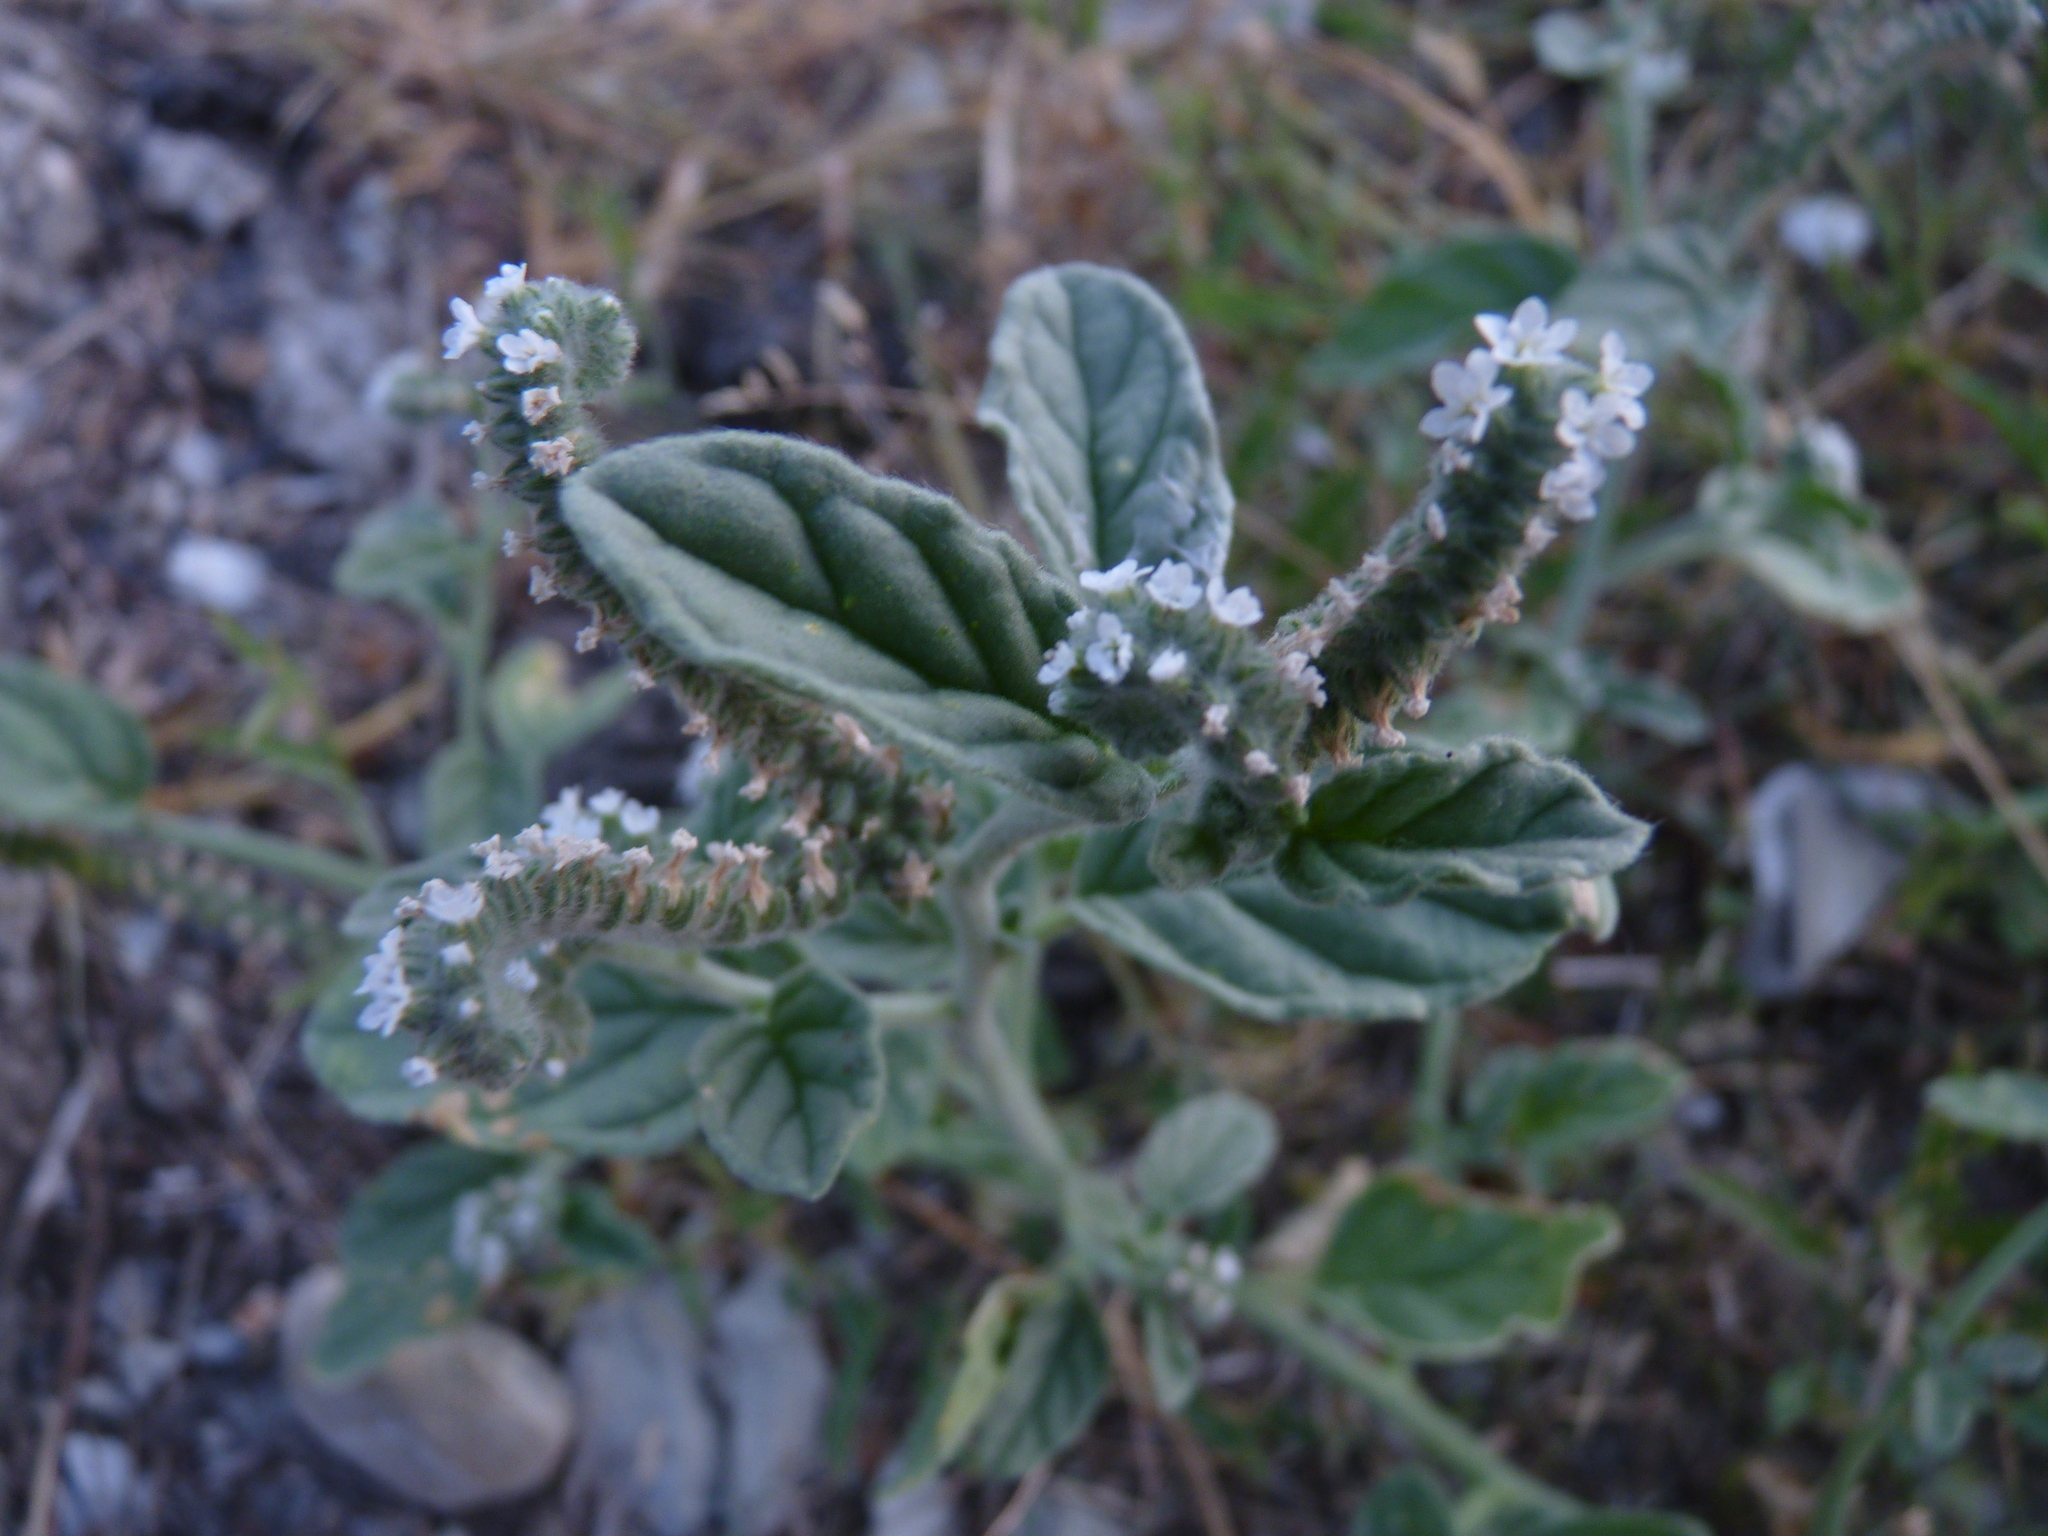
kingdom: Plantae
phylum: Tracheophyta
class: Magnoliopsida
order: Boraginales
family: Heliotropiaceae
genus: Heliotropium
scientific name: Heliotropium europaeum
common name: European heliotrope
